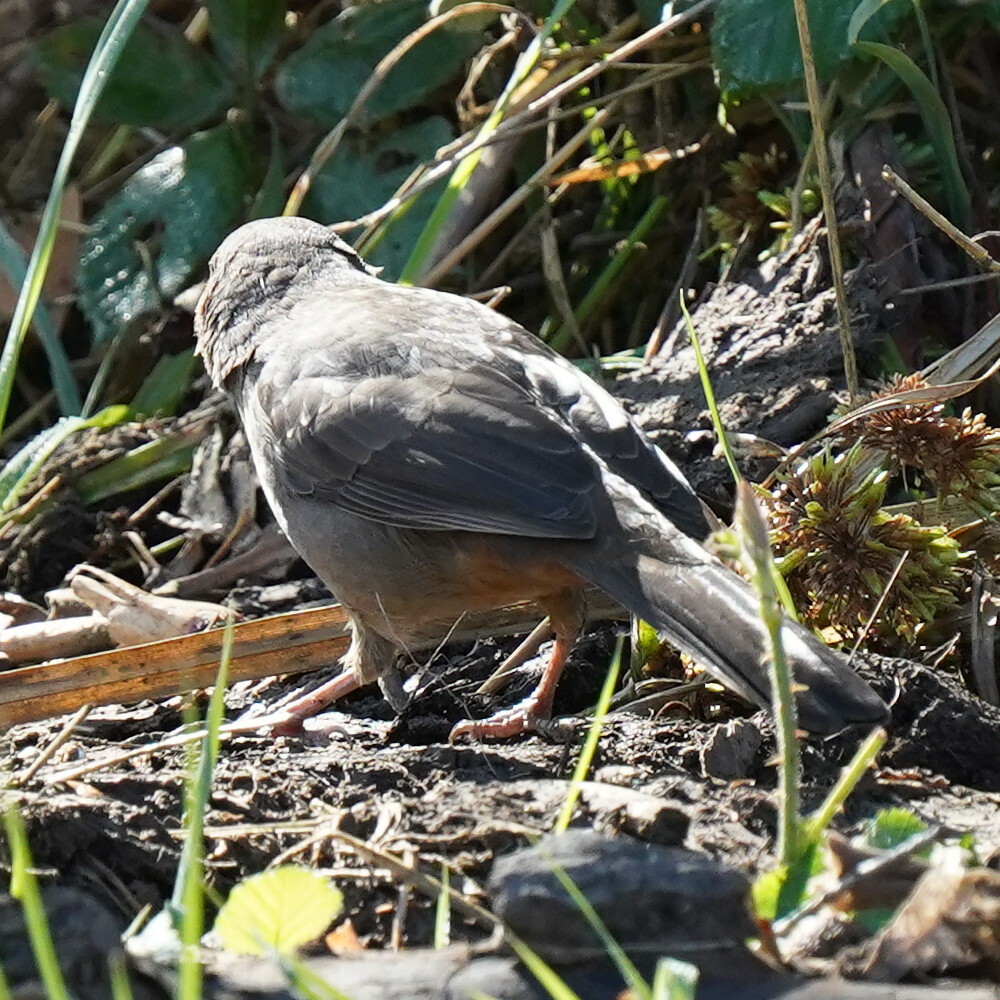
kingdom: Animalia
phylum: Chordata
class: Aves
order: Passeriformes
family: Passerellidae
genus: Melozone
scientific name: Melozone crissalis
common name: California towhee
